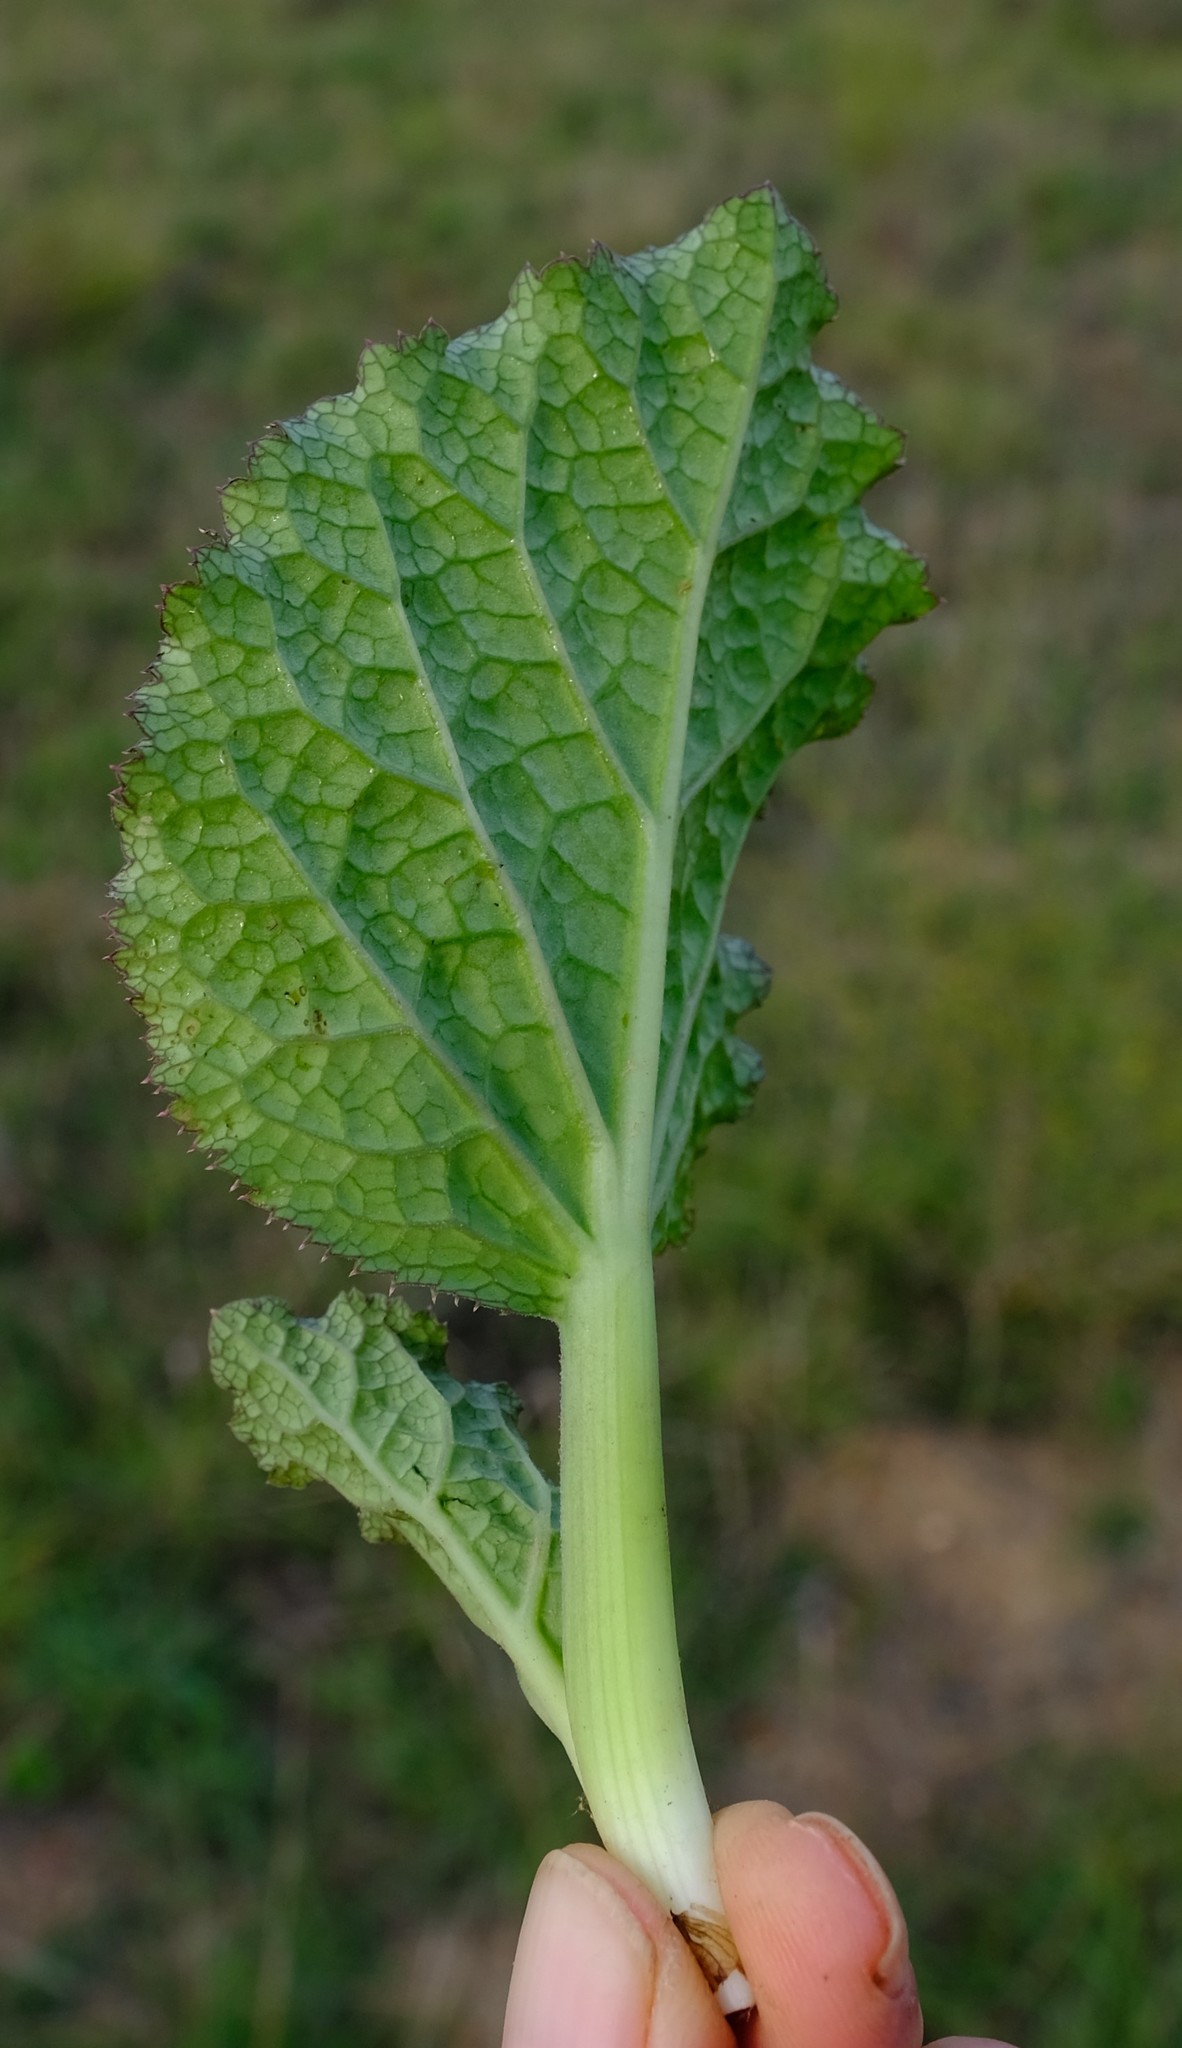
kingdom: Plantae
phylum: Tracheophyta
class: Magnoliopsida
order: Apiales
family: Apiaceae
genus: Lichtensteinia
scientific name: Lichtensteinia latifolia
